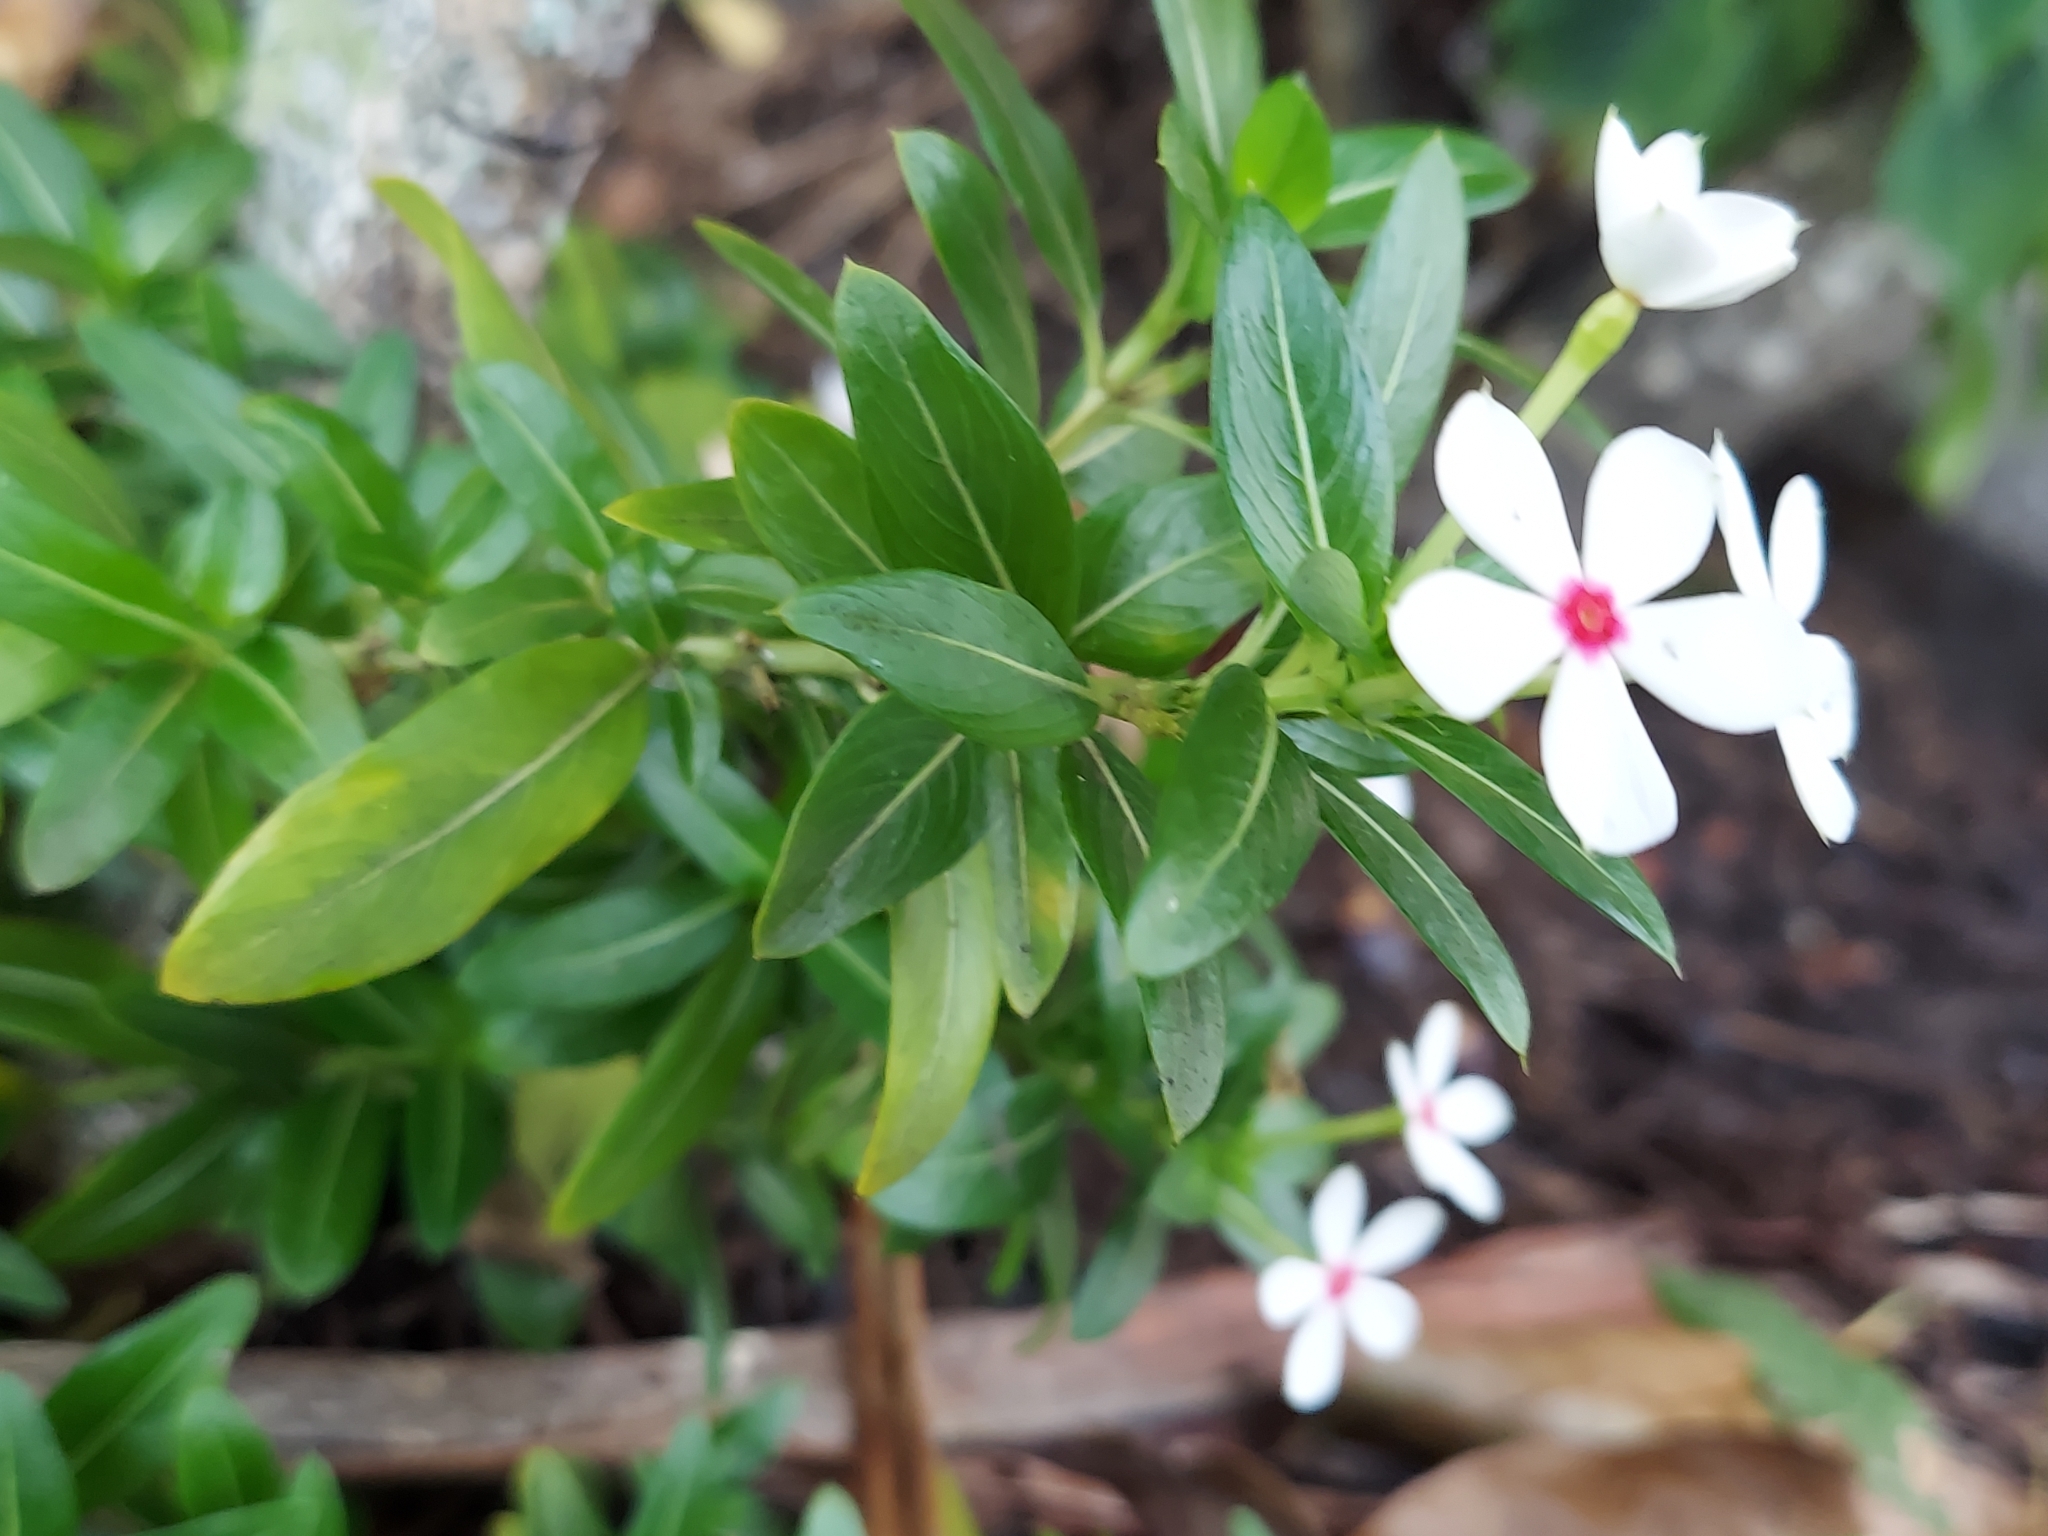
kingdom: Plantae
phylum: Tracheophyta
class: Magnoliopsida
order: Gentianales
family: Apocynaceae
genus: Catharanthus
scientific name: Catharanthus roseus
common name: Madagascar periwinkle
